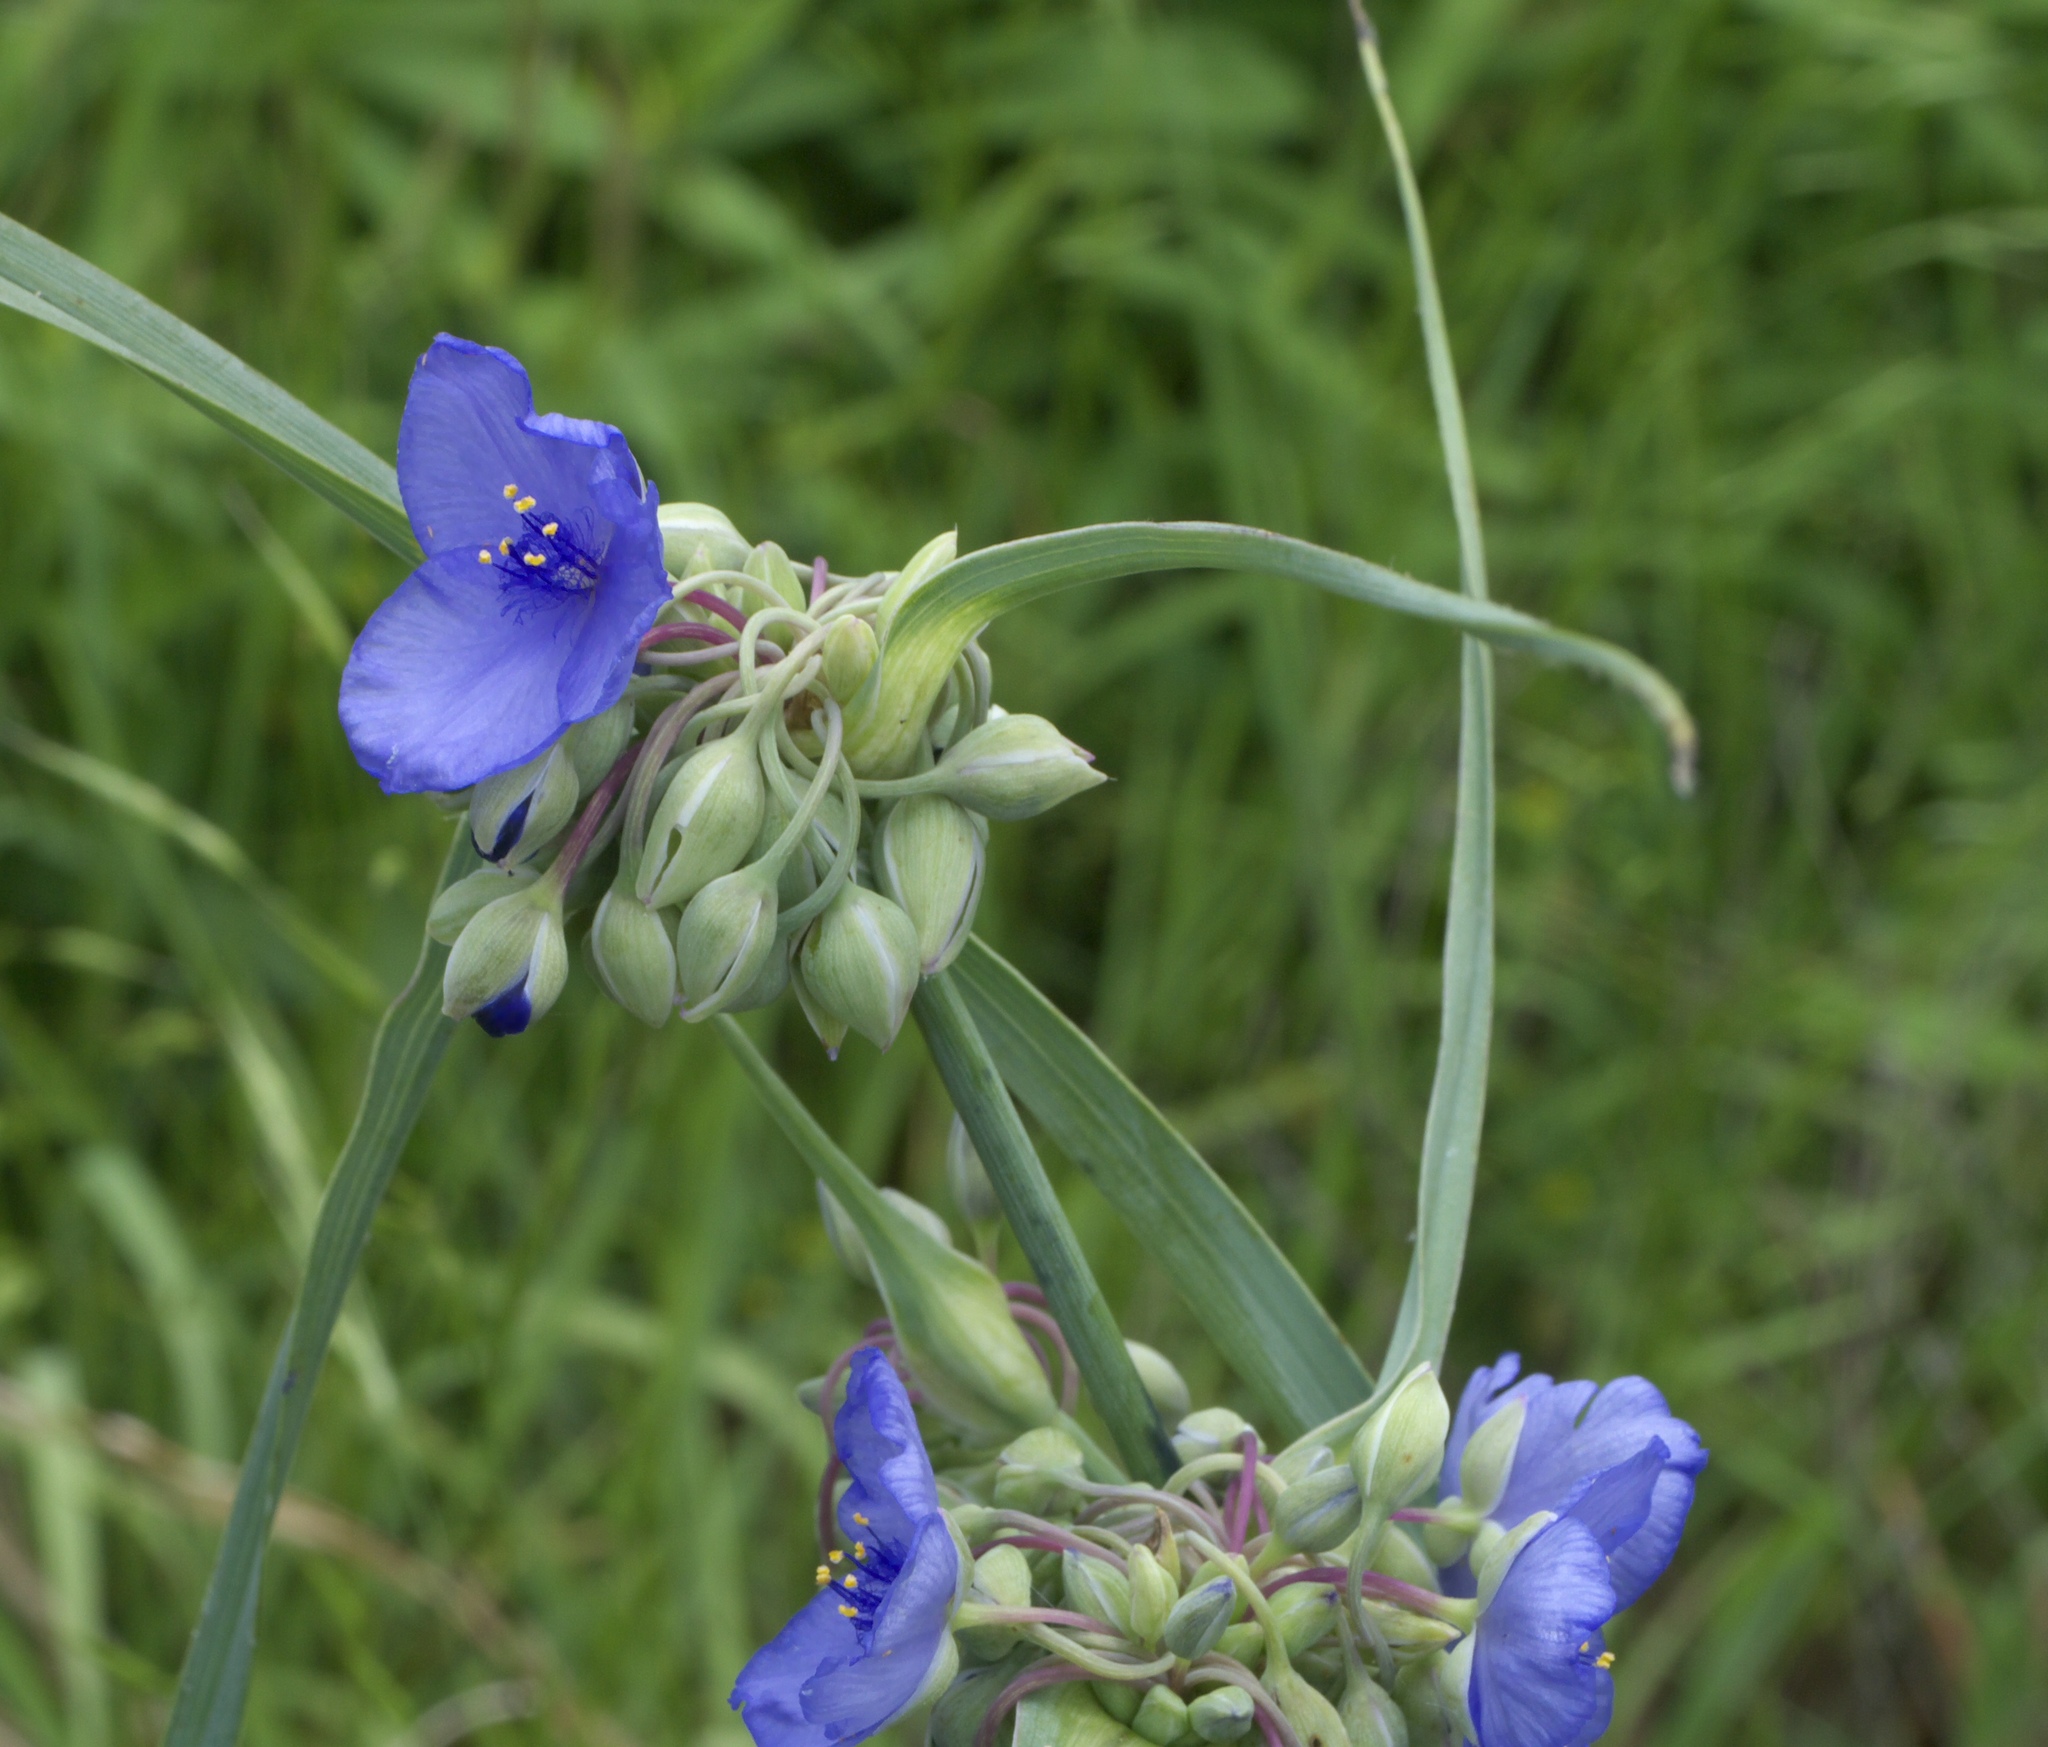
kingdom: Plantae
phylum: Tracheophyta
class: Liliopsida
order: Commelinales
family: Commelinaceae
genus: Tradescantia
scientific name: Tradescantia ohiensis
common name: Ohio spiderwort
